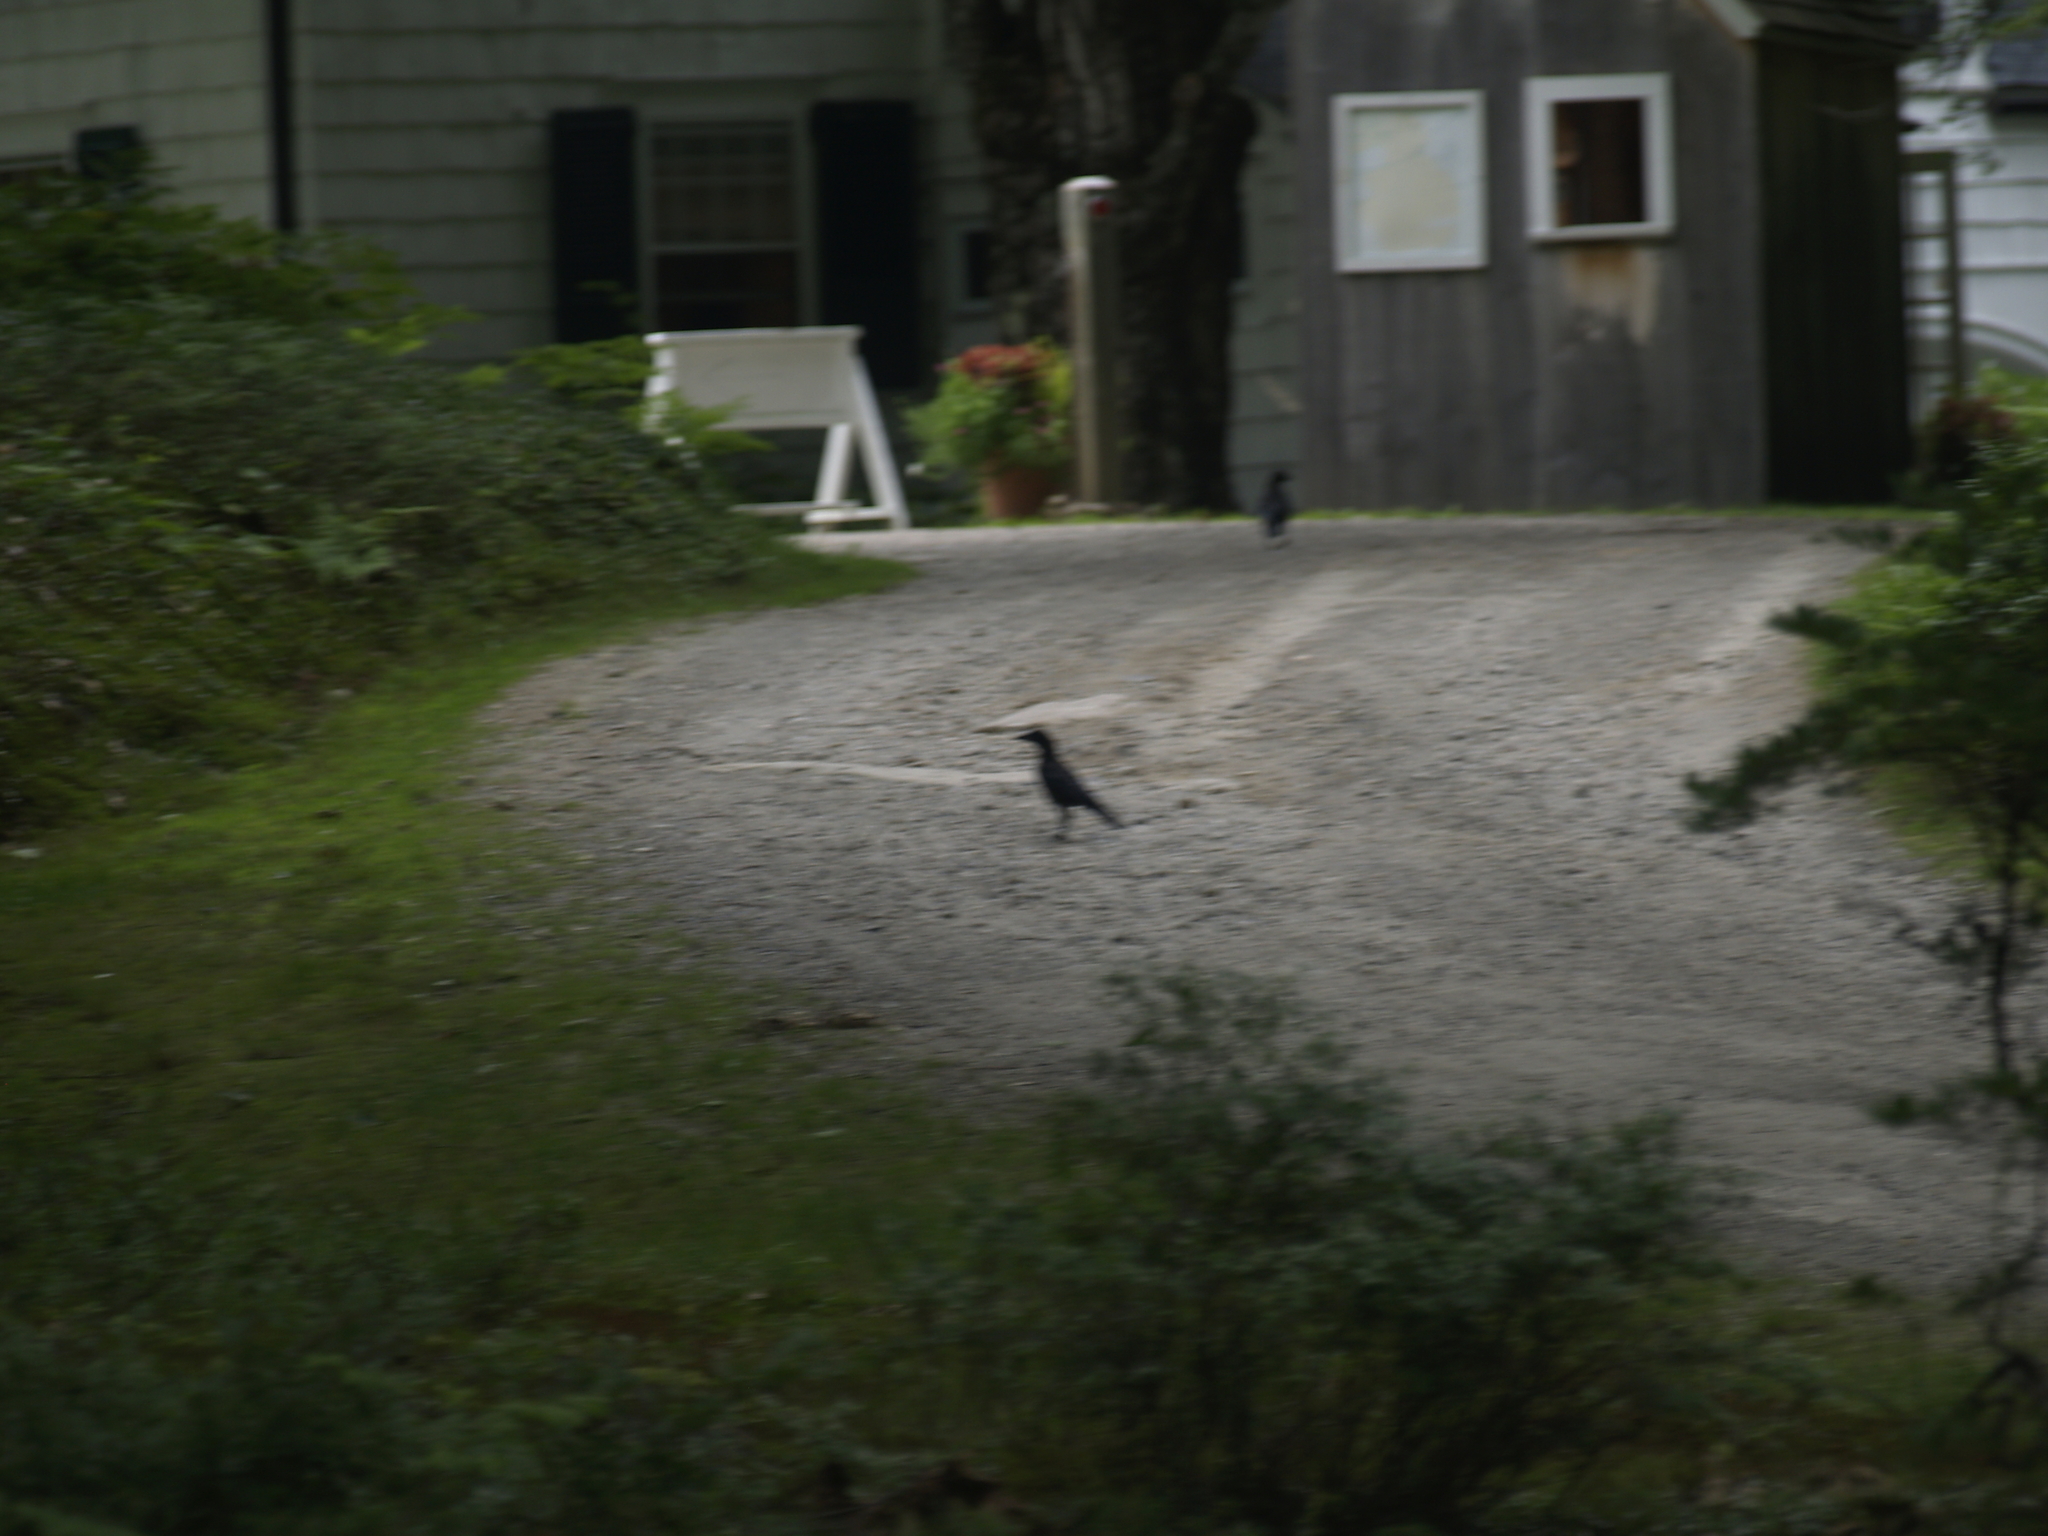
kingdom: Animalia
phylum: Chordata
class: Aves
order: Passeriformes
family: Corvidae
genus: Corvus
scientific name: Corvus brachyrhynchos
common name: American crow
